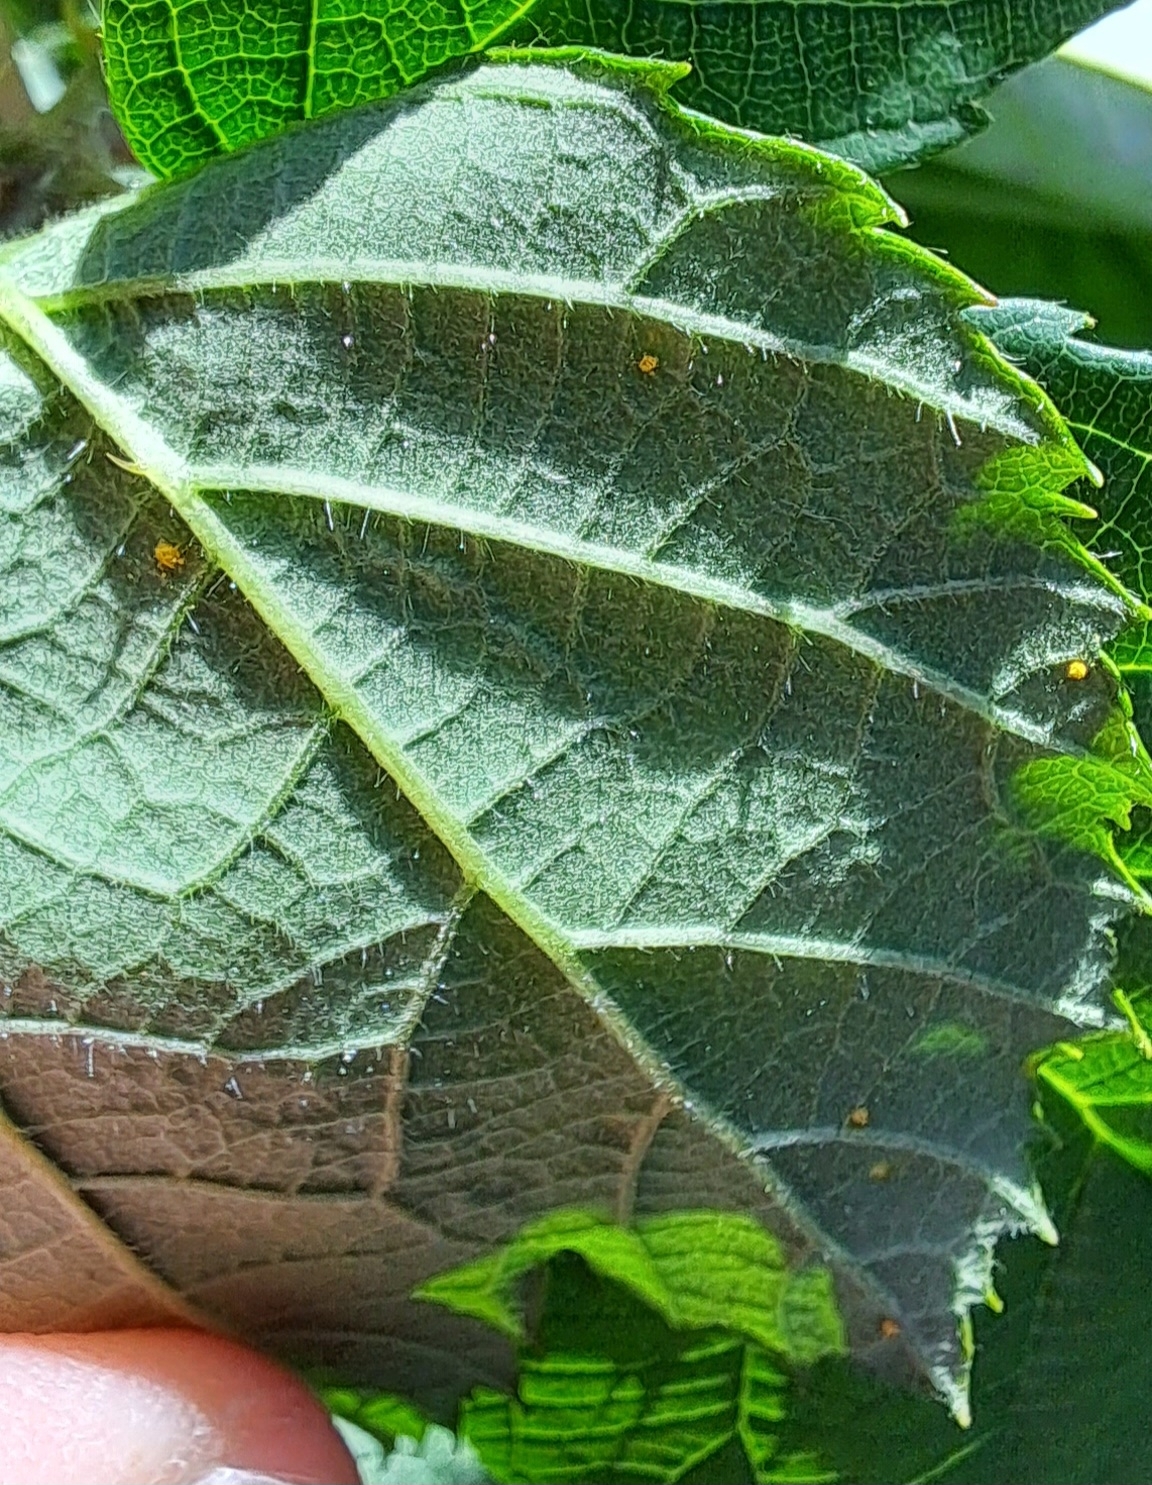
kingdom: Fungi
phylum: Basidiomycota
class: Pucciniomycetes
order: Pucciniales
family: Phragmidiaceae
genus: Kuehneola
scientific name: Kuehneola uredinis
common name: Bramble stem rust
